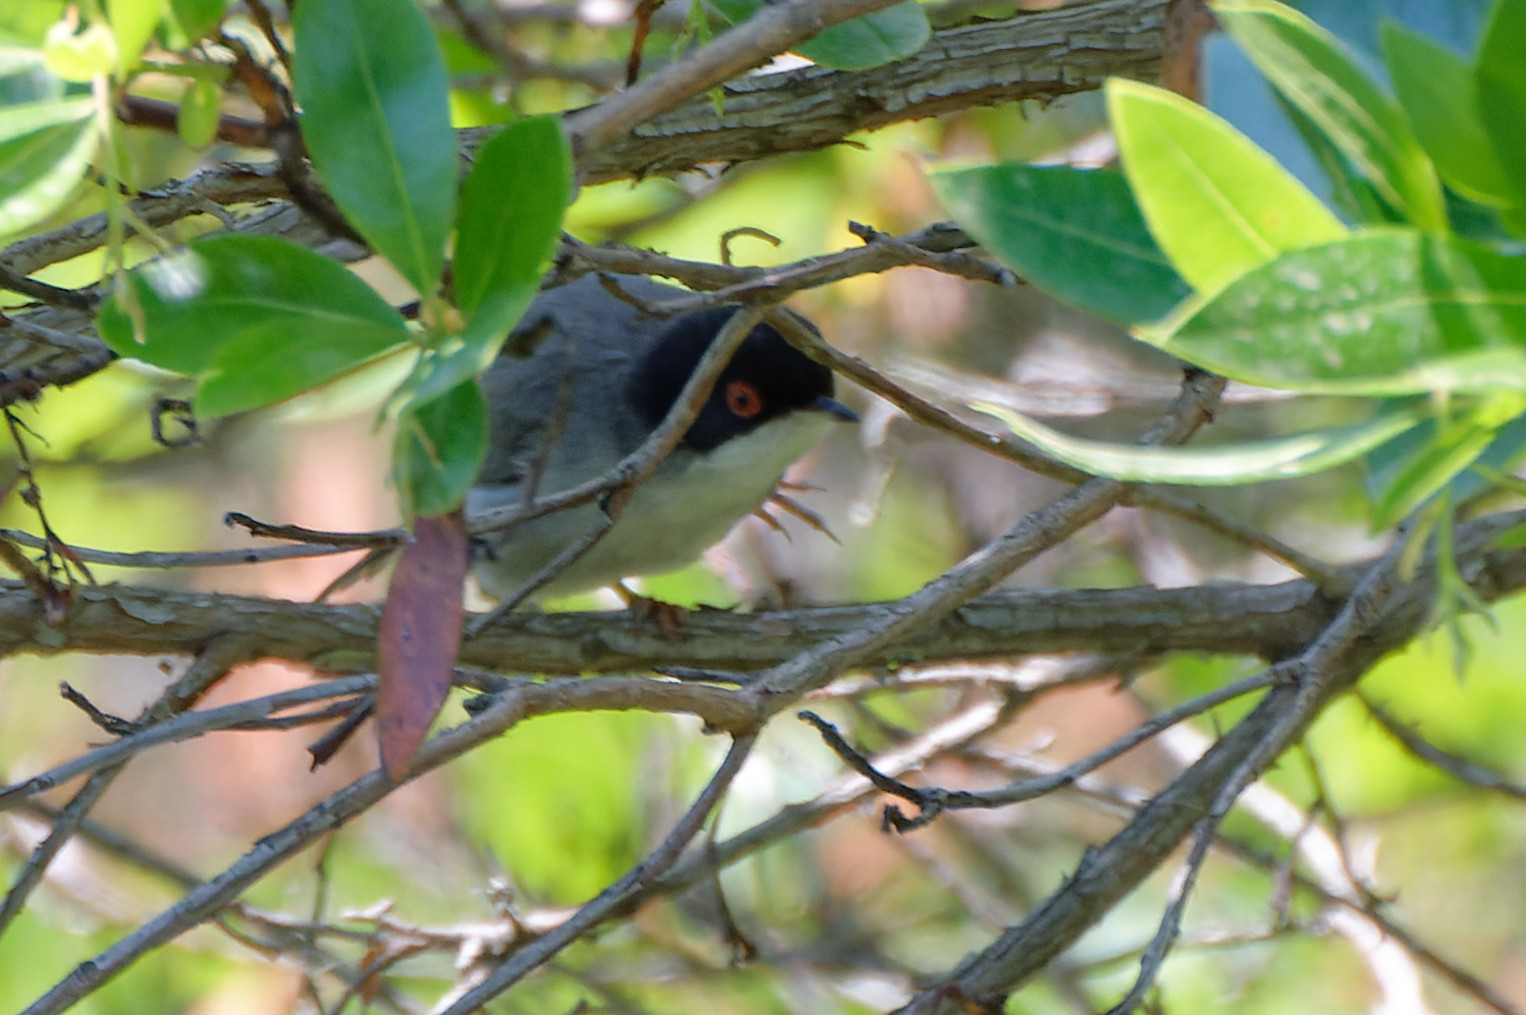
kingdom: Animalia
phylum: Chordata
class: Aves
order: Passeriformes
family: Sylviidae
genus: Curruca
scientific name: Curruca melanocephala
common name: Sardinian warbler
